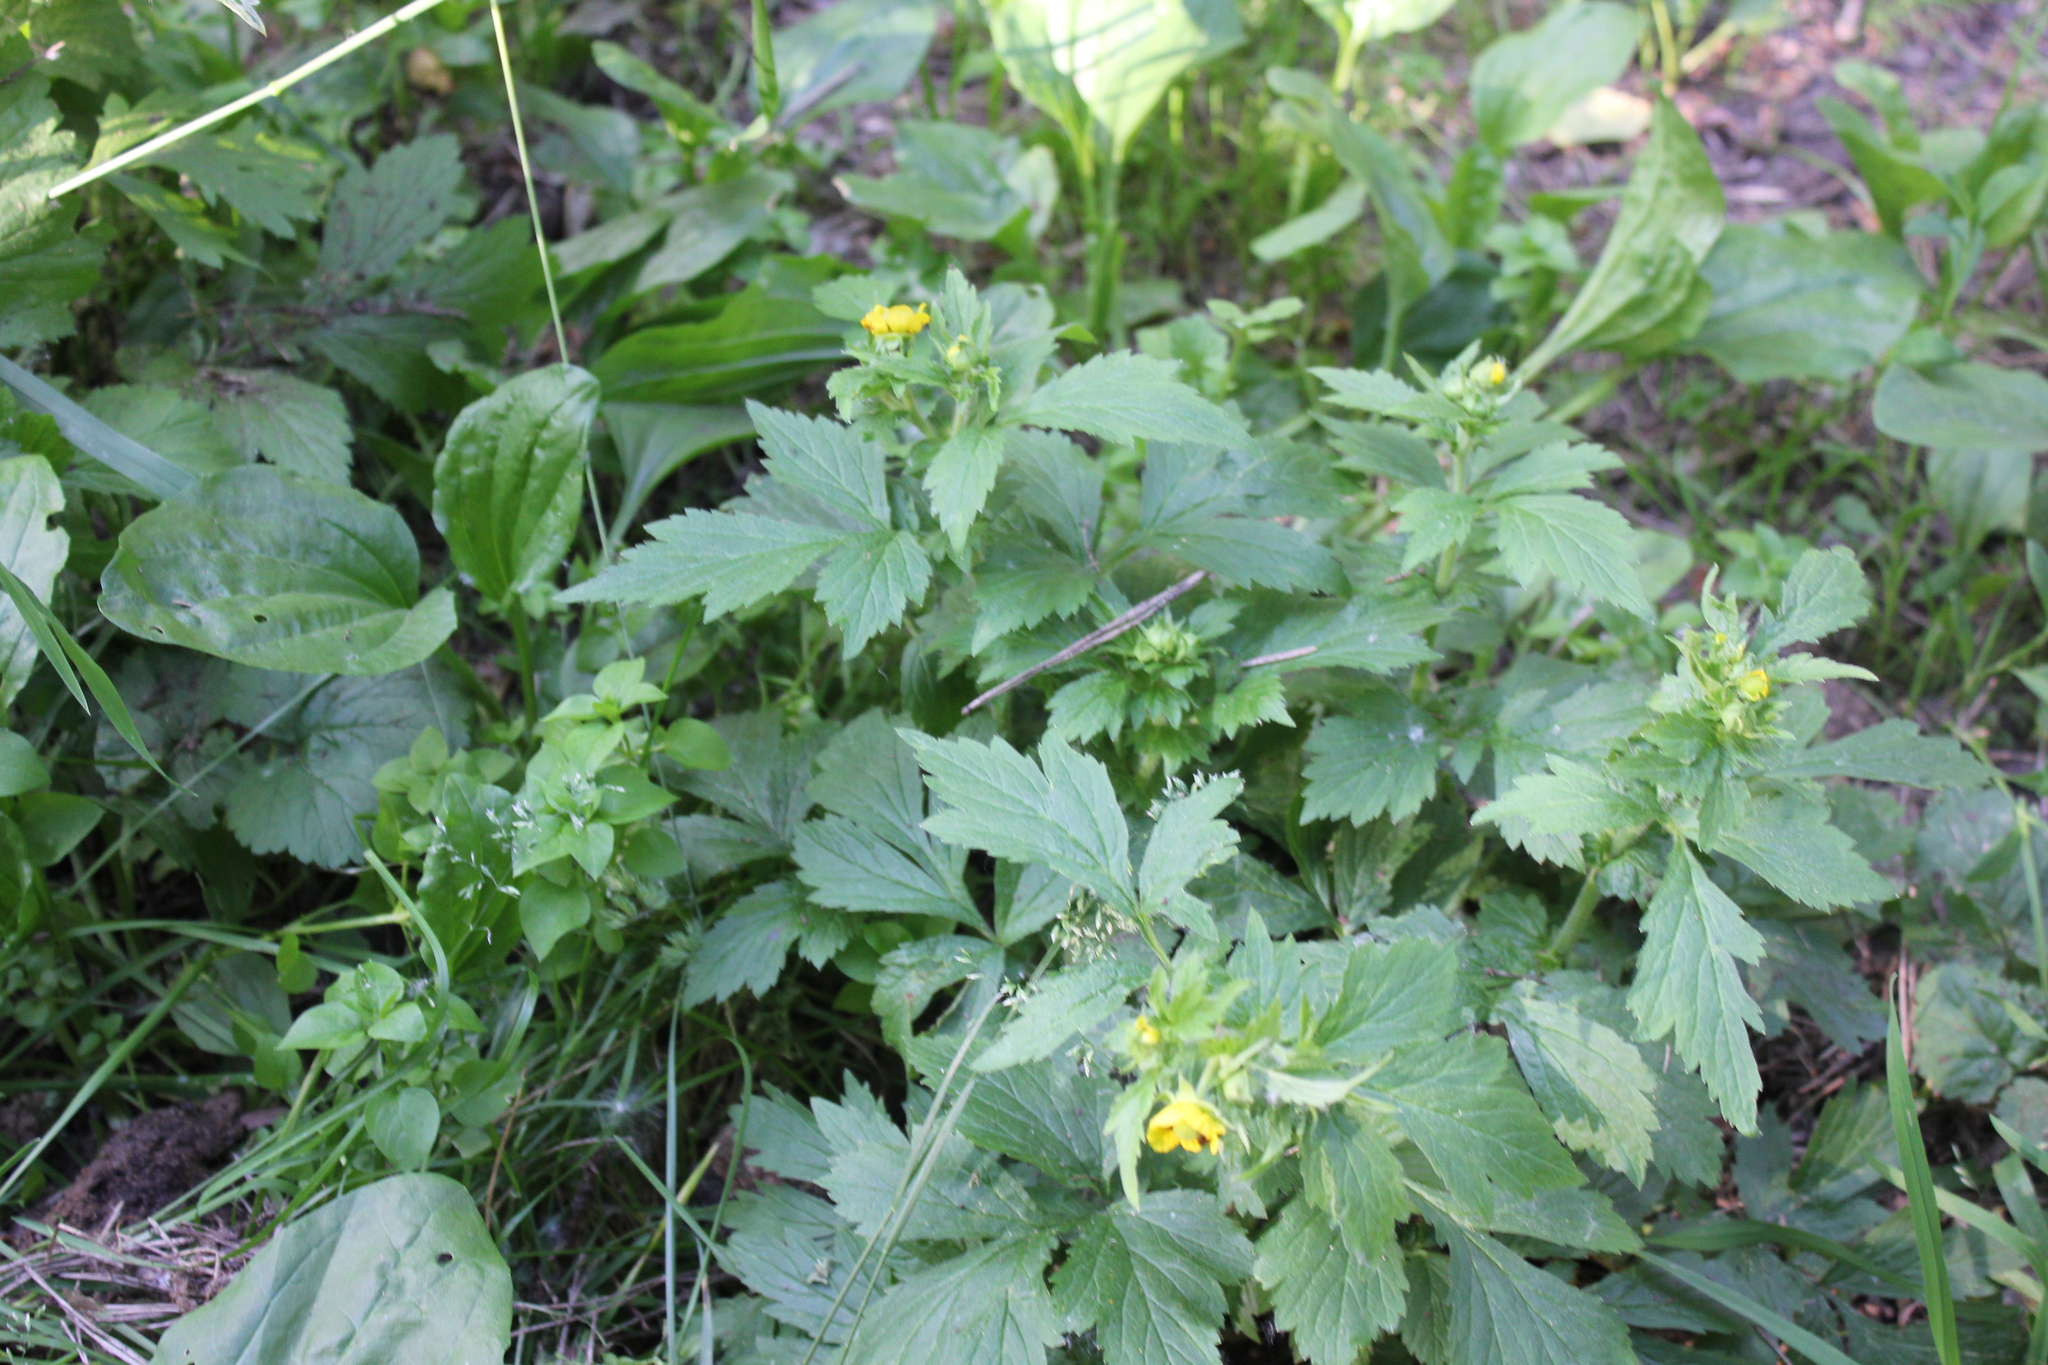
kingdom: Plantae
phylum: Tracheophyta
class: Magnoliopsida
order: Rosales
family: Rosaceae
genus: Geum
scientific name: Geum aleppicum
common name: Yellow avens
